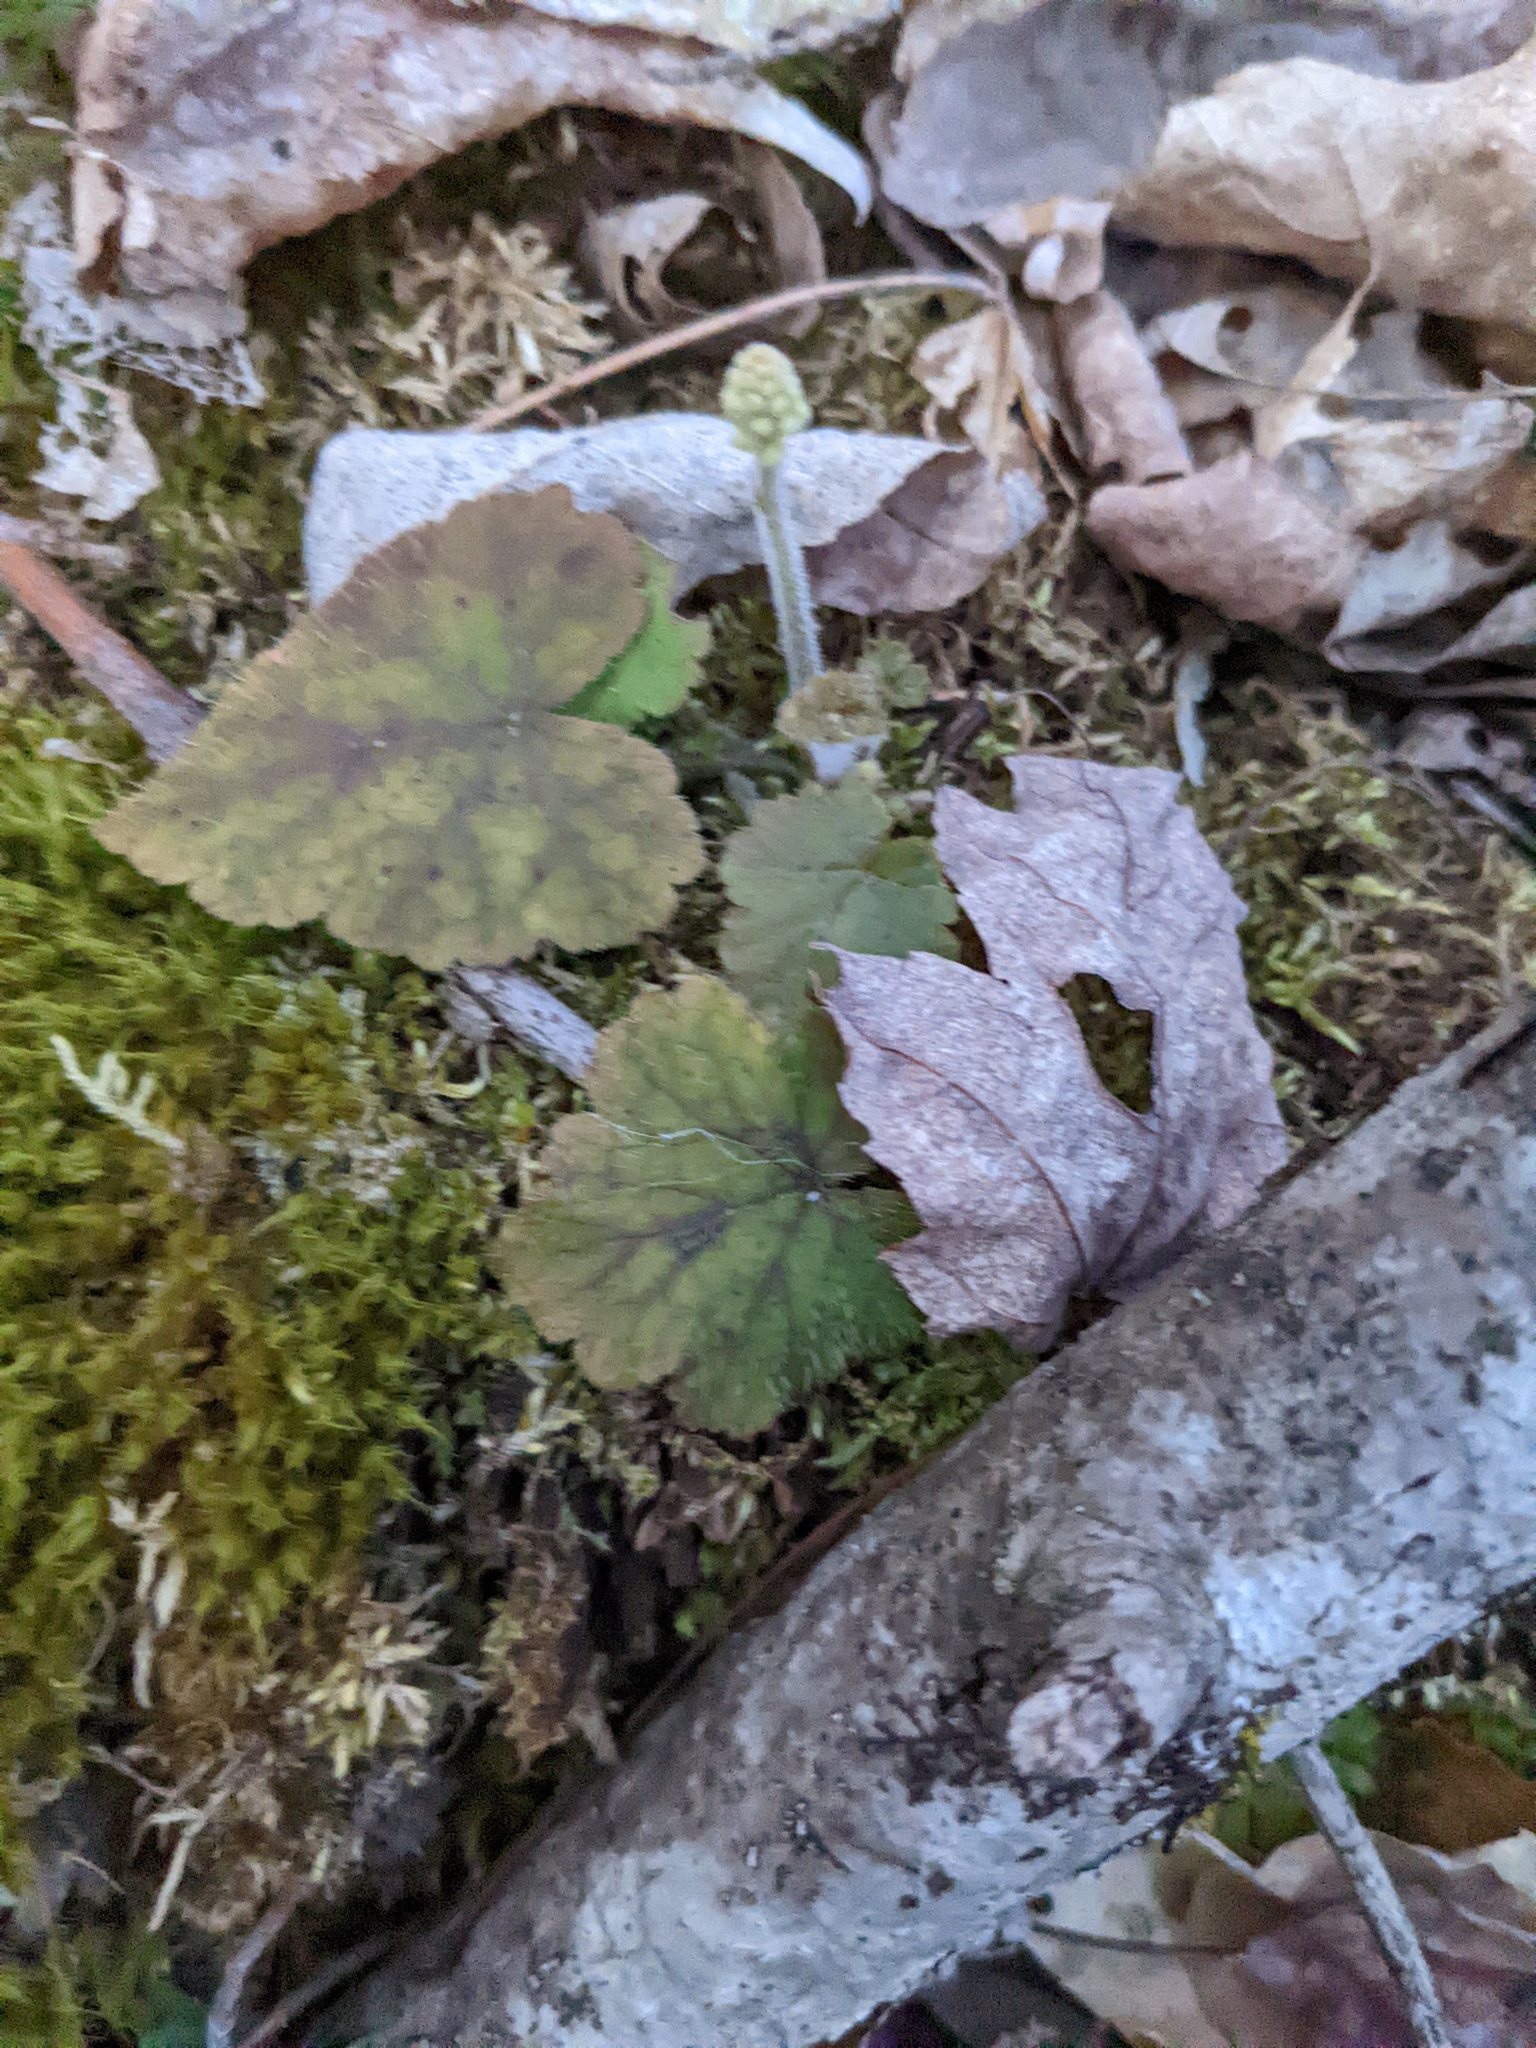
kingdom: Plantae
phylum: Tracheophyta
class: Magnoliopsida
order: Saxifragales
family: Saxifragaceae
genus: Tiarella
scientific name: Tiarella stolonifera
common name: Stoloniferous foamflower
